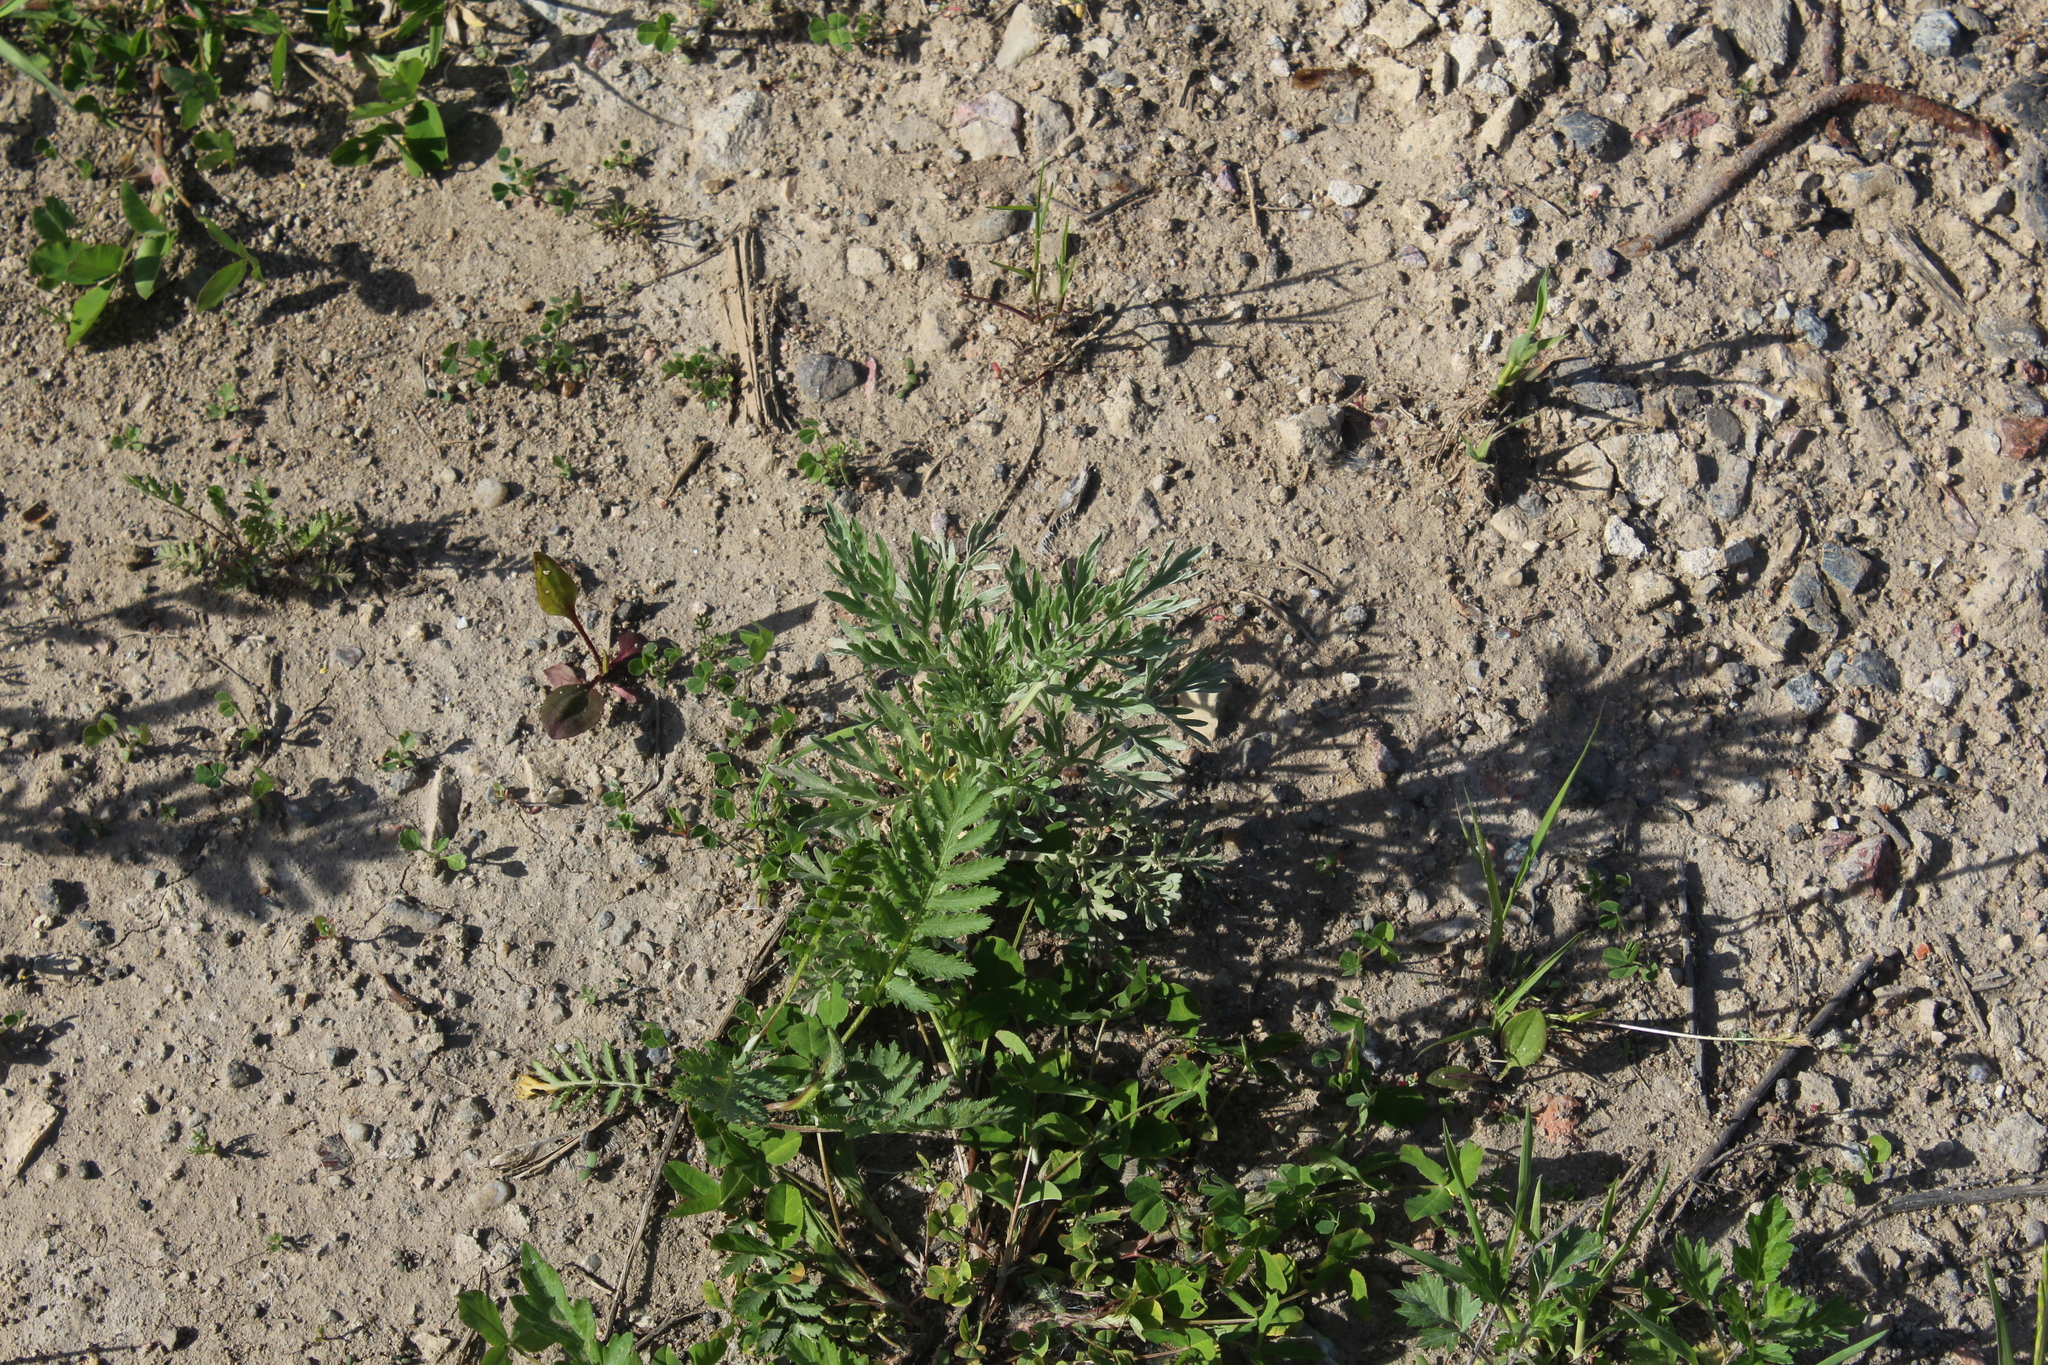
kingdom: Plantae
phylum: Tracheophyta
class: Magnoliopsida
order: Asterales
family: Asteraceae
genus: Artemisia
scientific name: Artemisia absinthium
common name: Wormwood
